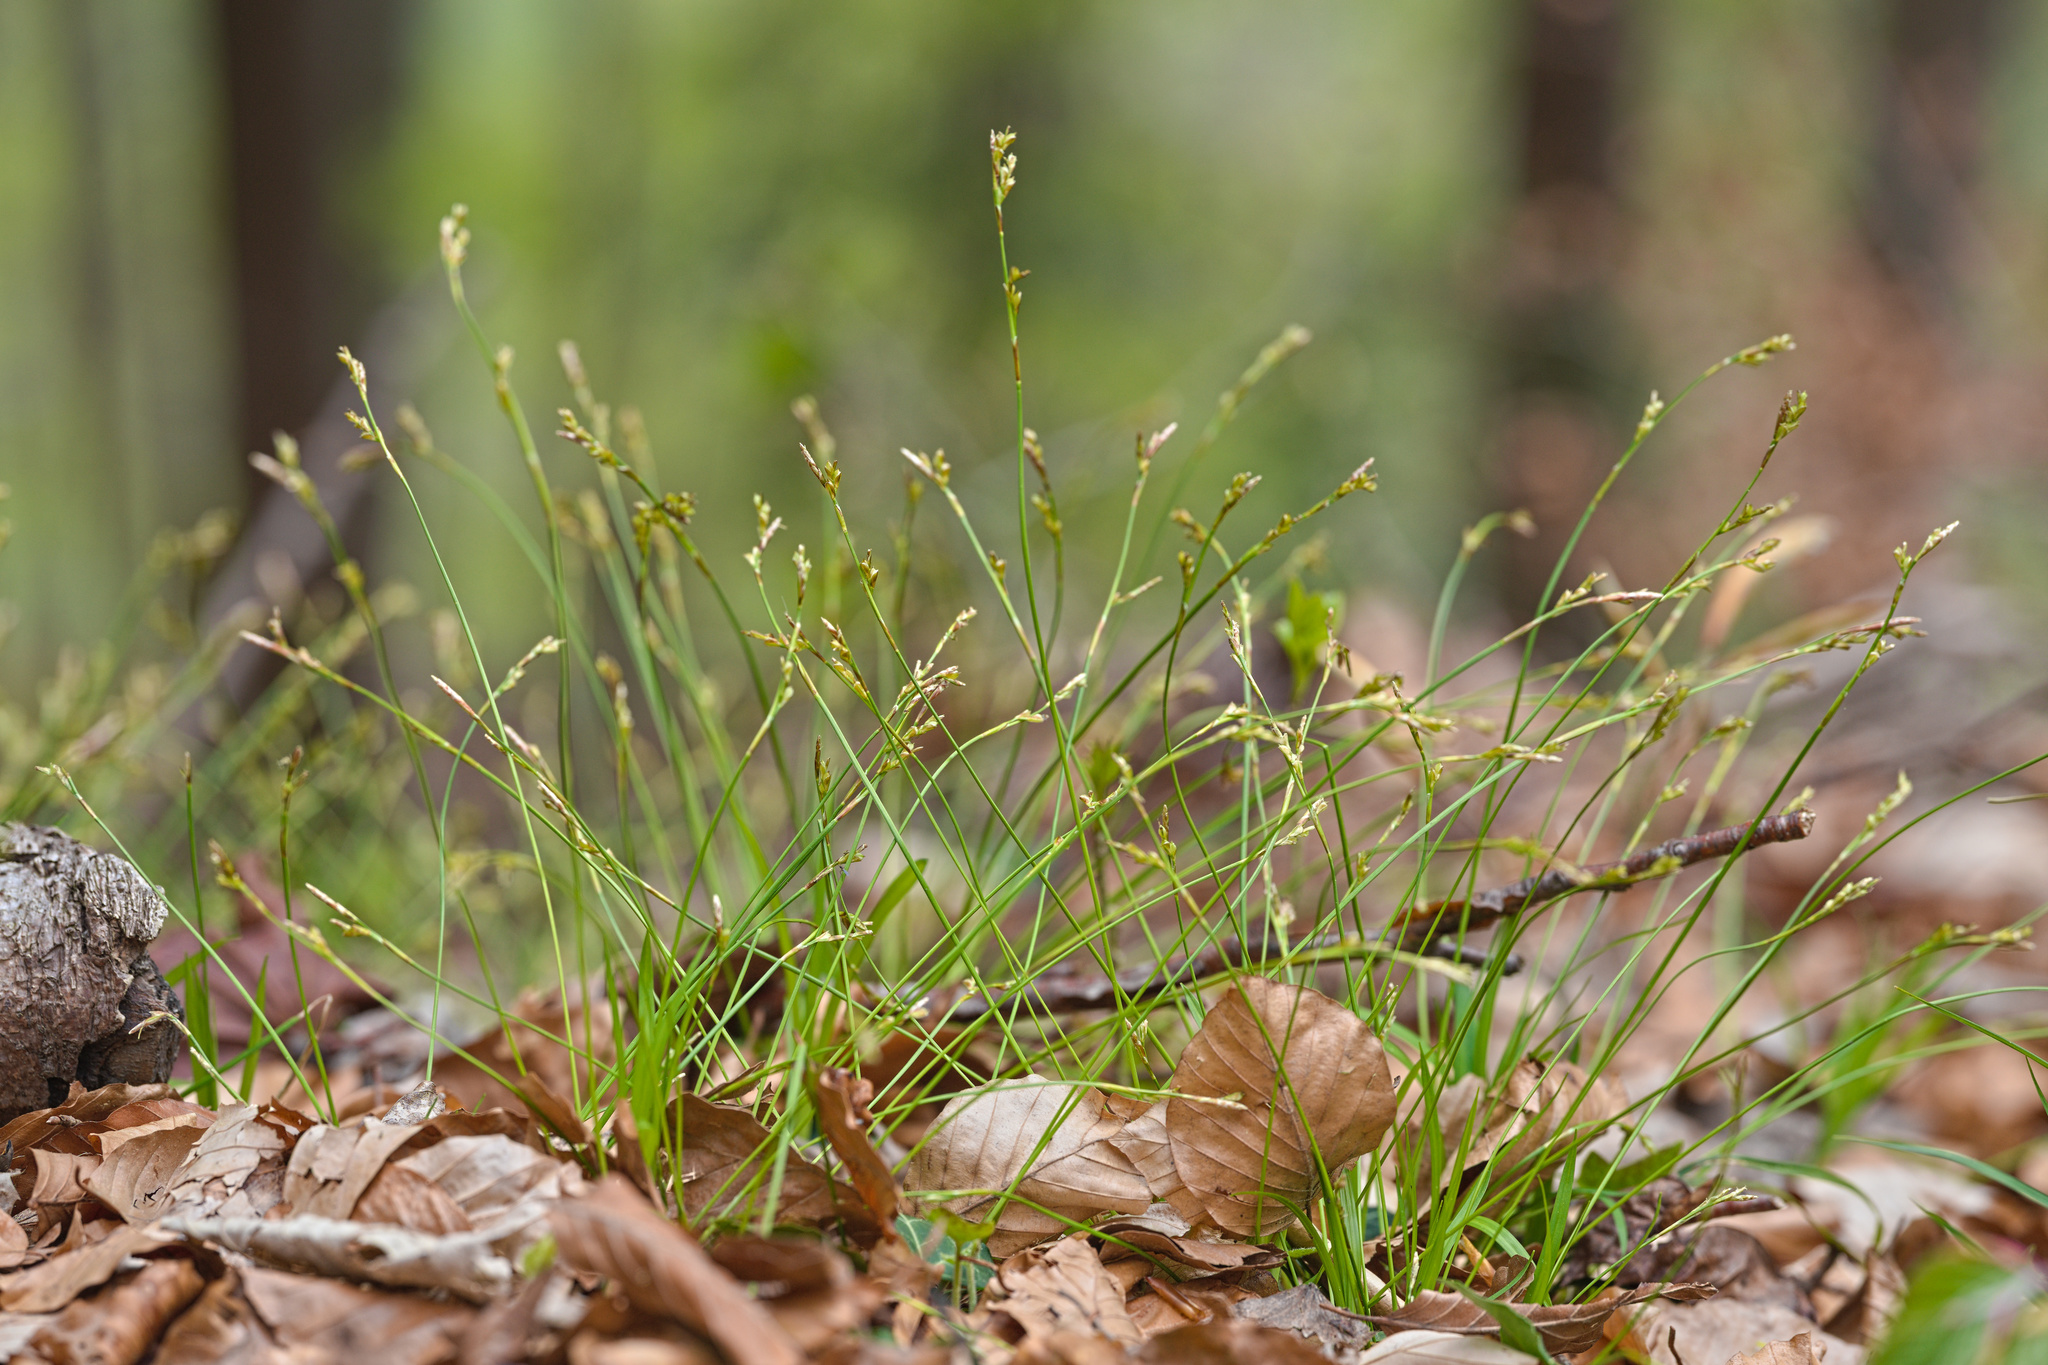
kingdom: Plantae
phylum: Tracheophyta
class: Liliopsida
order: Poales
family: Cyperaceae
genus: Carex
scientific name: Carex digitata
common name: Fingered sedge
